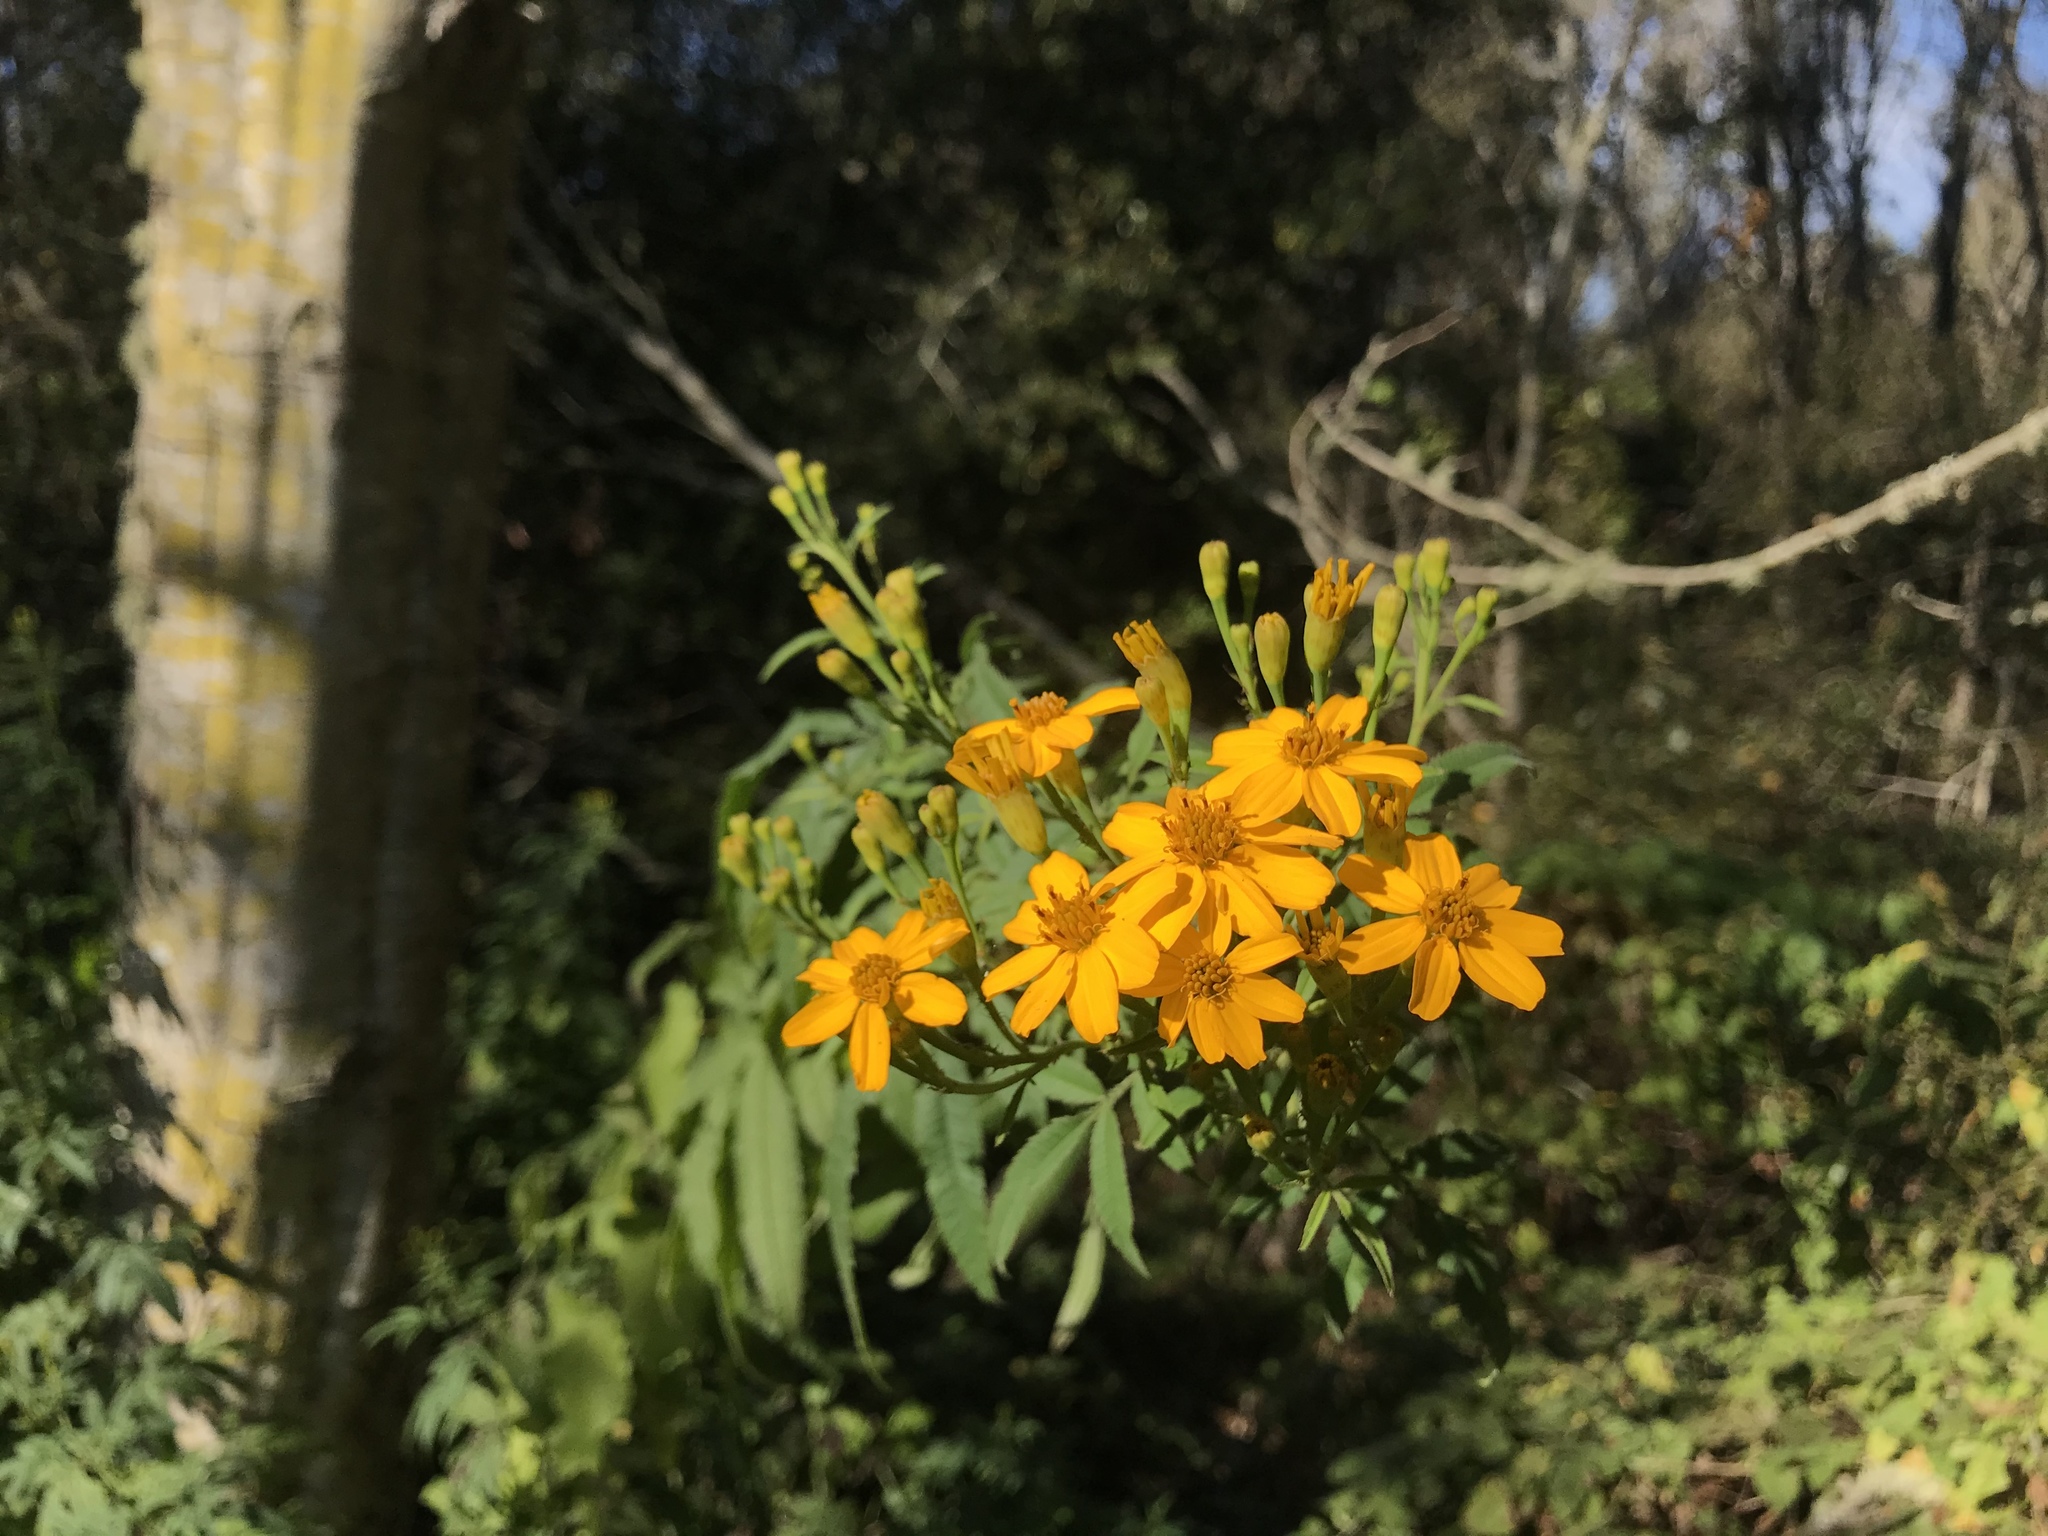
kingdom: Plantae
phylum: Tracheophyta
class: Magnoliopsida
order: Asterales
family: Asteraceae
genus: Tagetes
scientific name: Tagetes lemmonii
